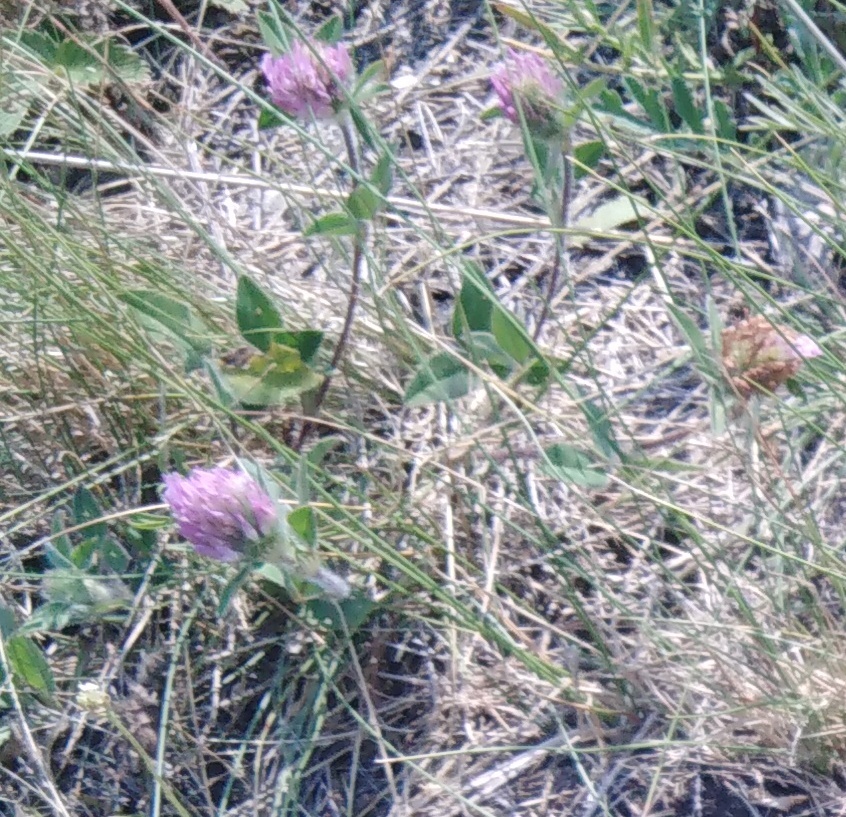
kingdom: Plantae
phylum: Tracheophyta
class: Magnoliopsida
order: Fabales
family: Fabaceae
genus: Trifolium
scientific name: Trifolium pratense
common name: Red clover
